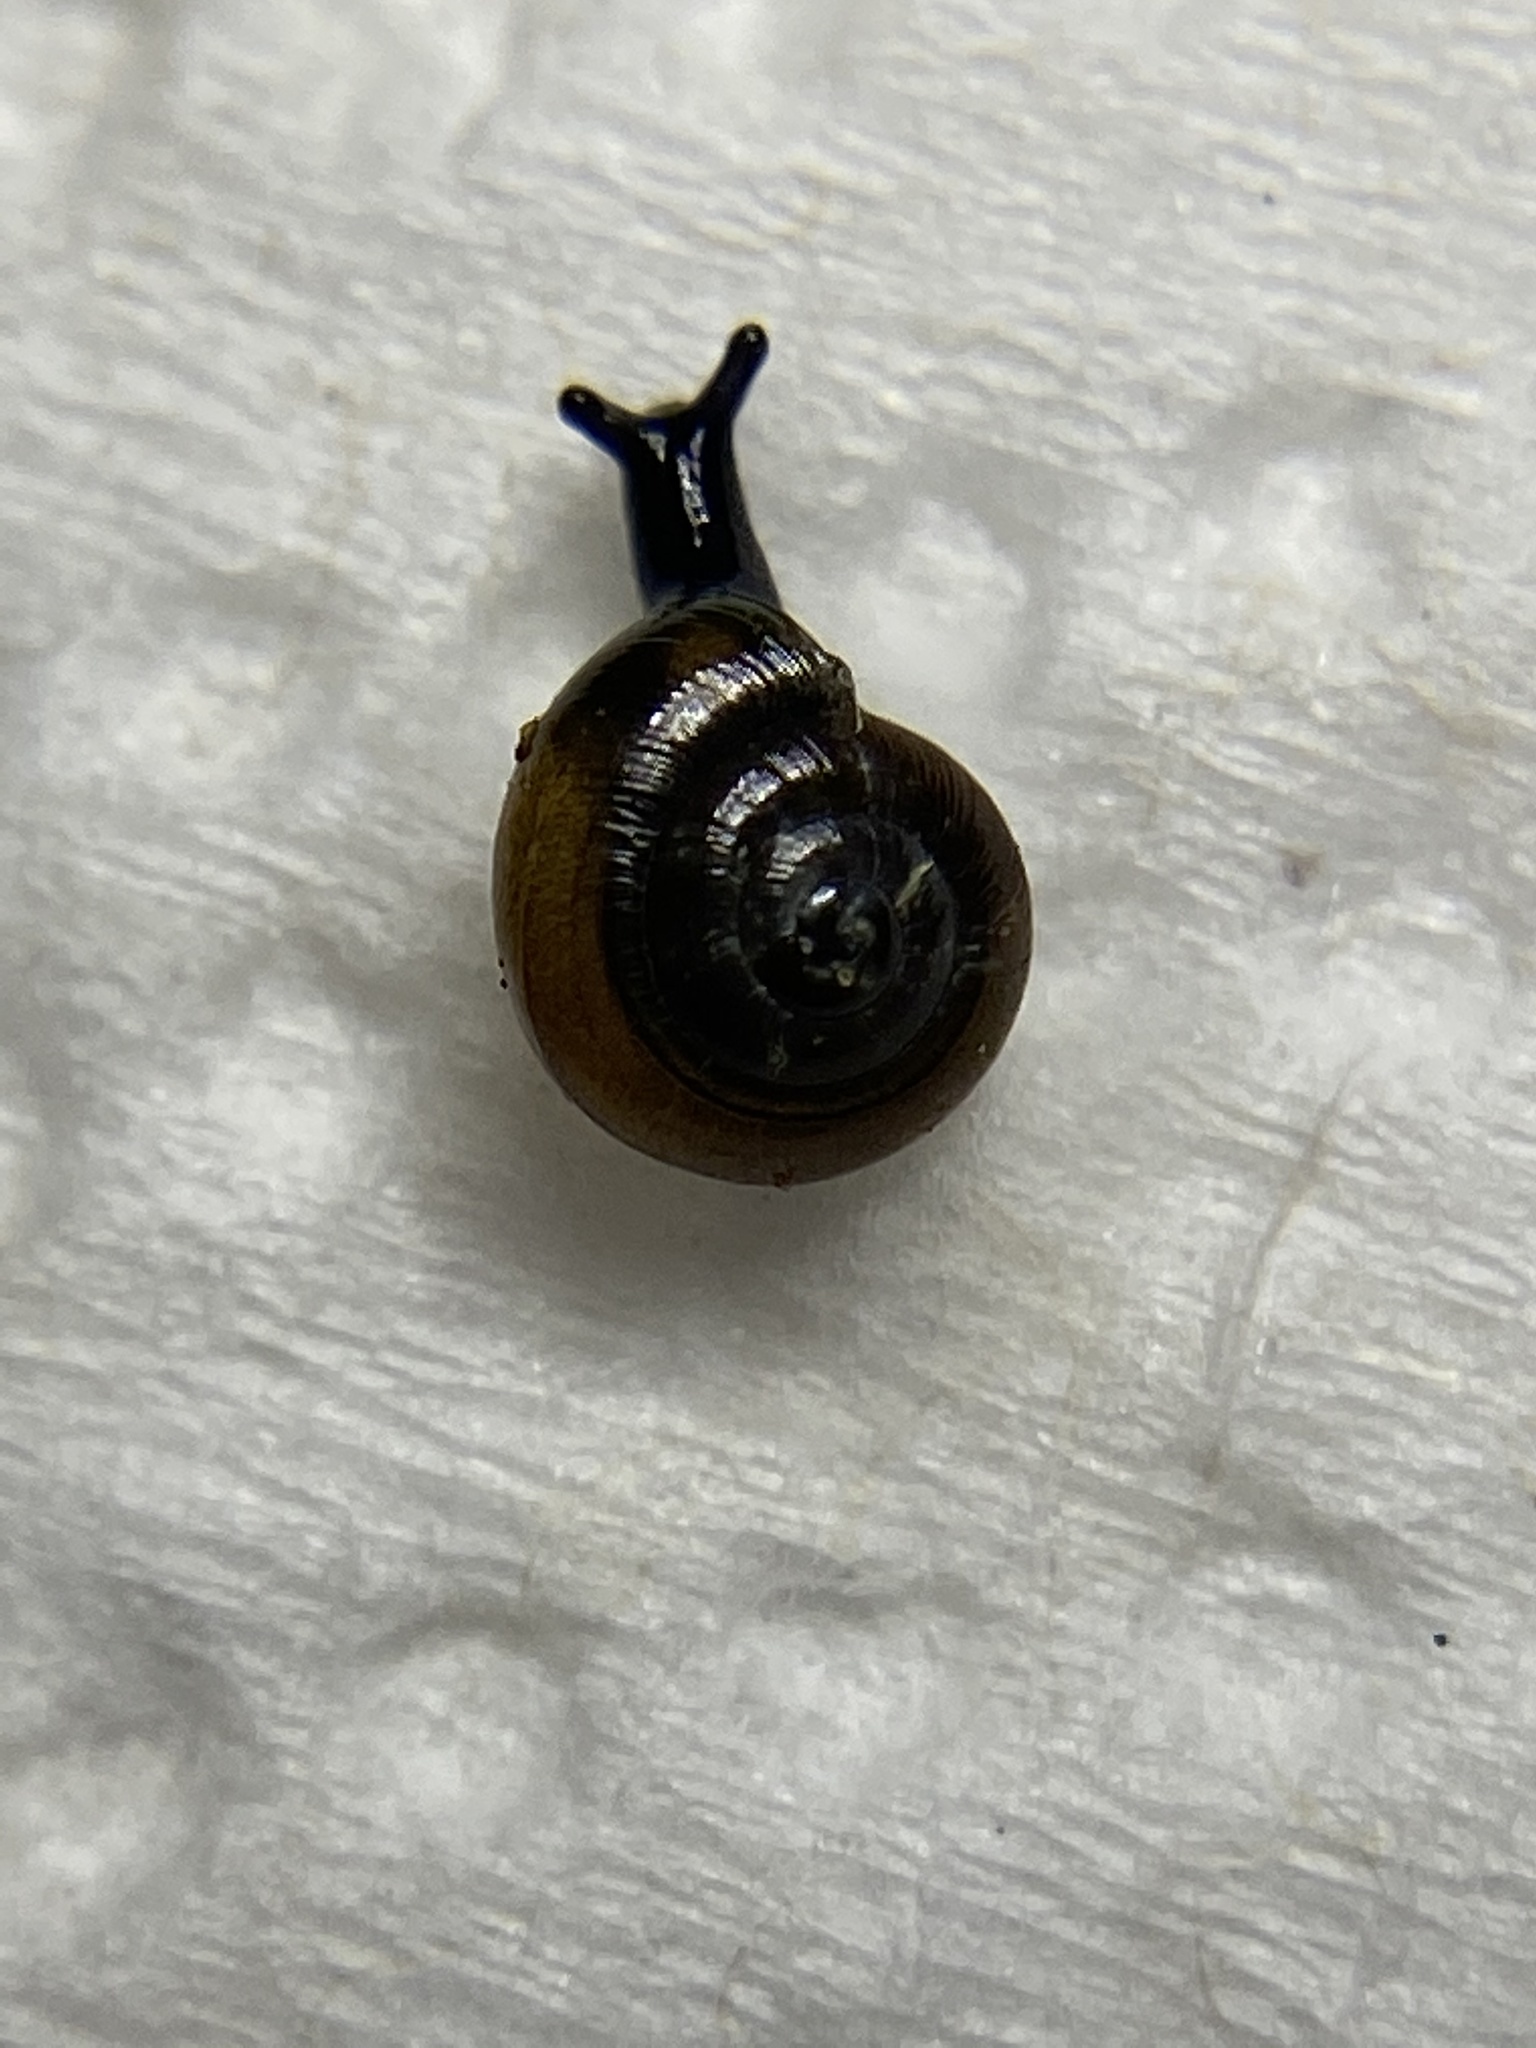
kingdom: Animalia
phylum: Mollusca
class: Gastropoda
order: Stylommatophora
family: Gastrodontidae
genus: Zonitoides
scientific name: Zonitoides nitidus
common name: Shiny glass snail
